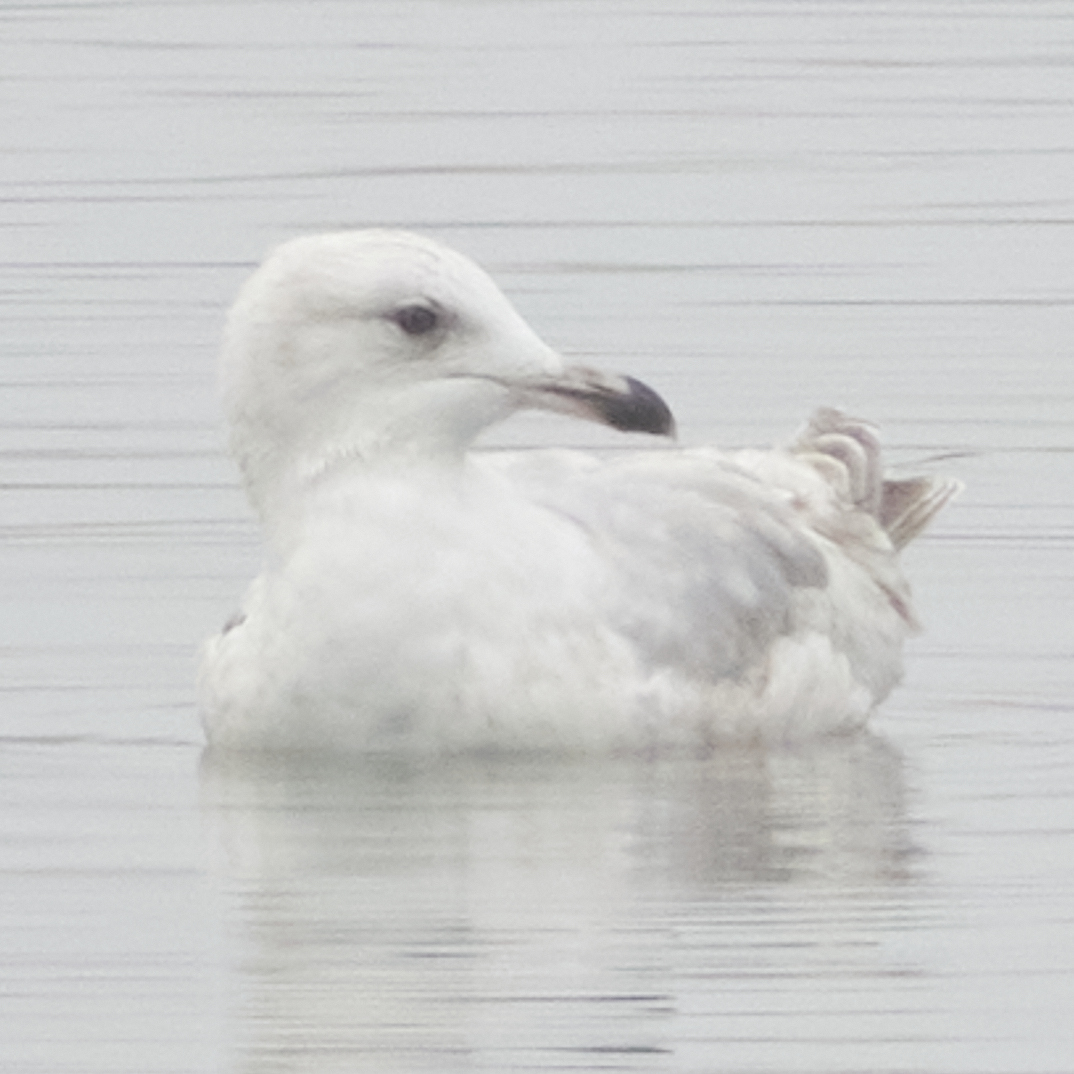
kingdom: Animalia
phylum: Chordata
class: Aves
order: Charadriiformes
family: Laridae
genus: Larus
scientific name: Larus glaucoides
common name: Iceland gull
